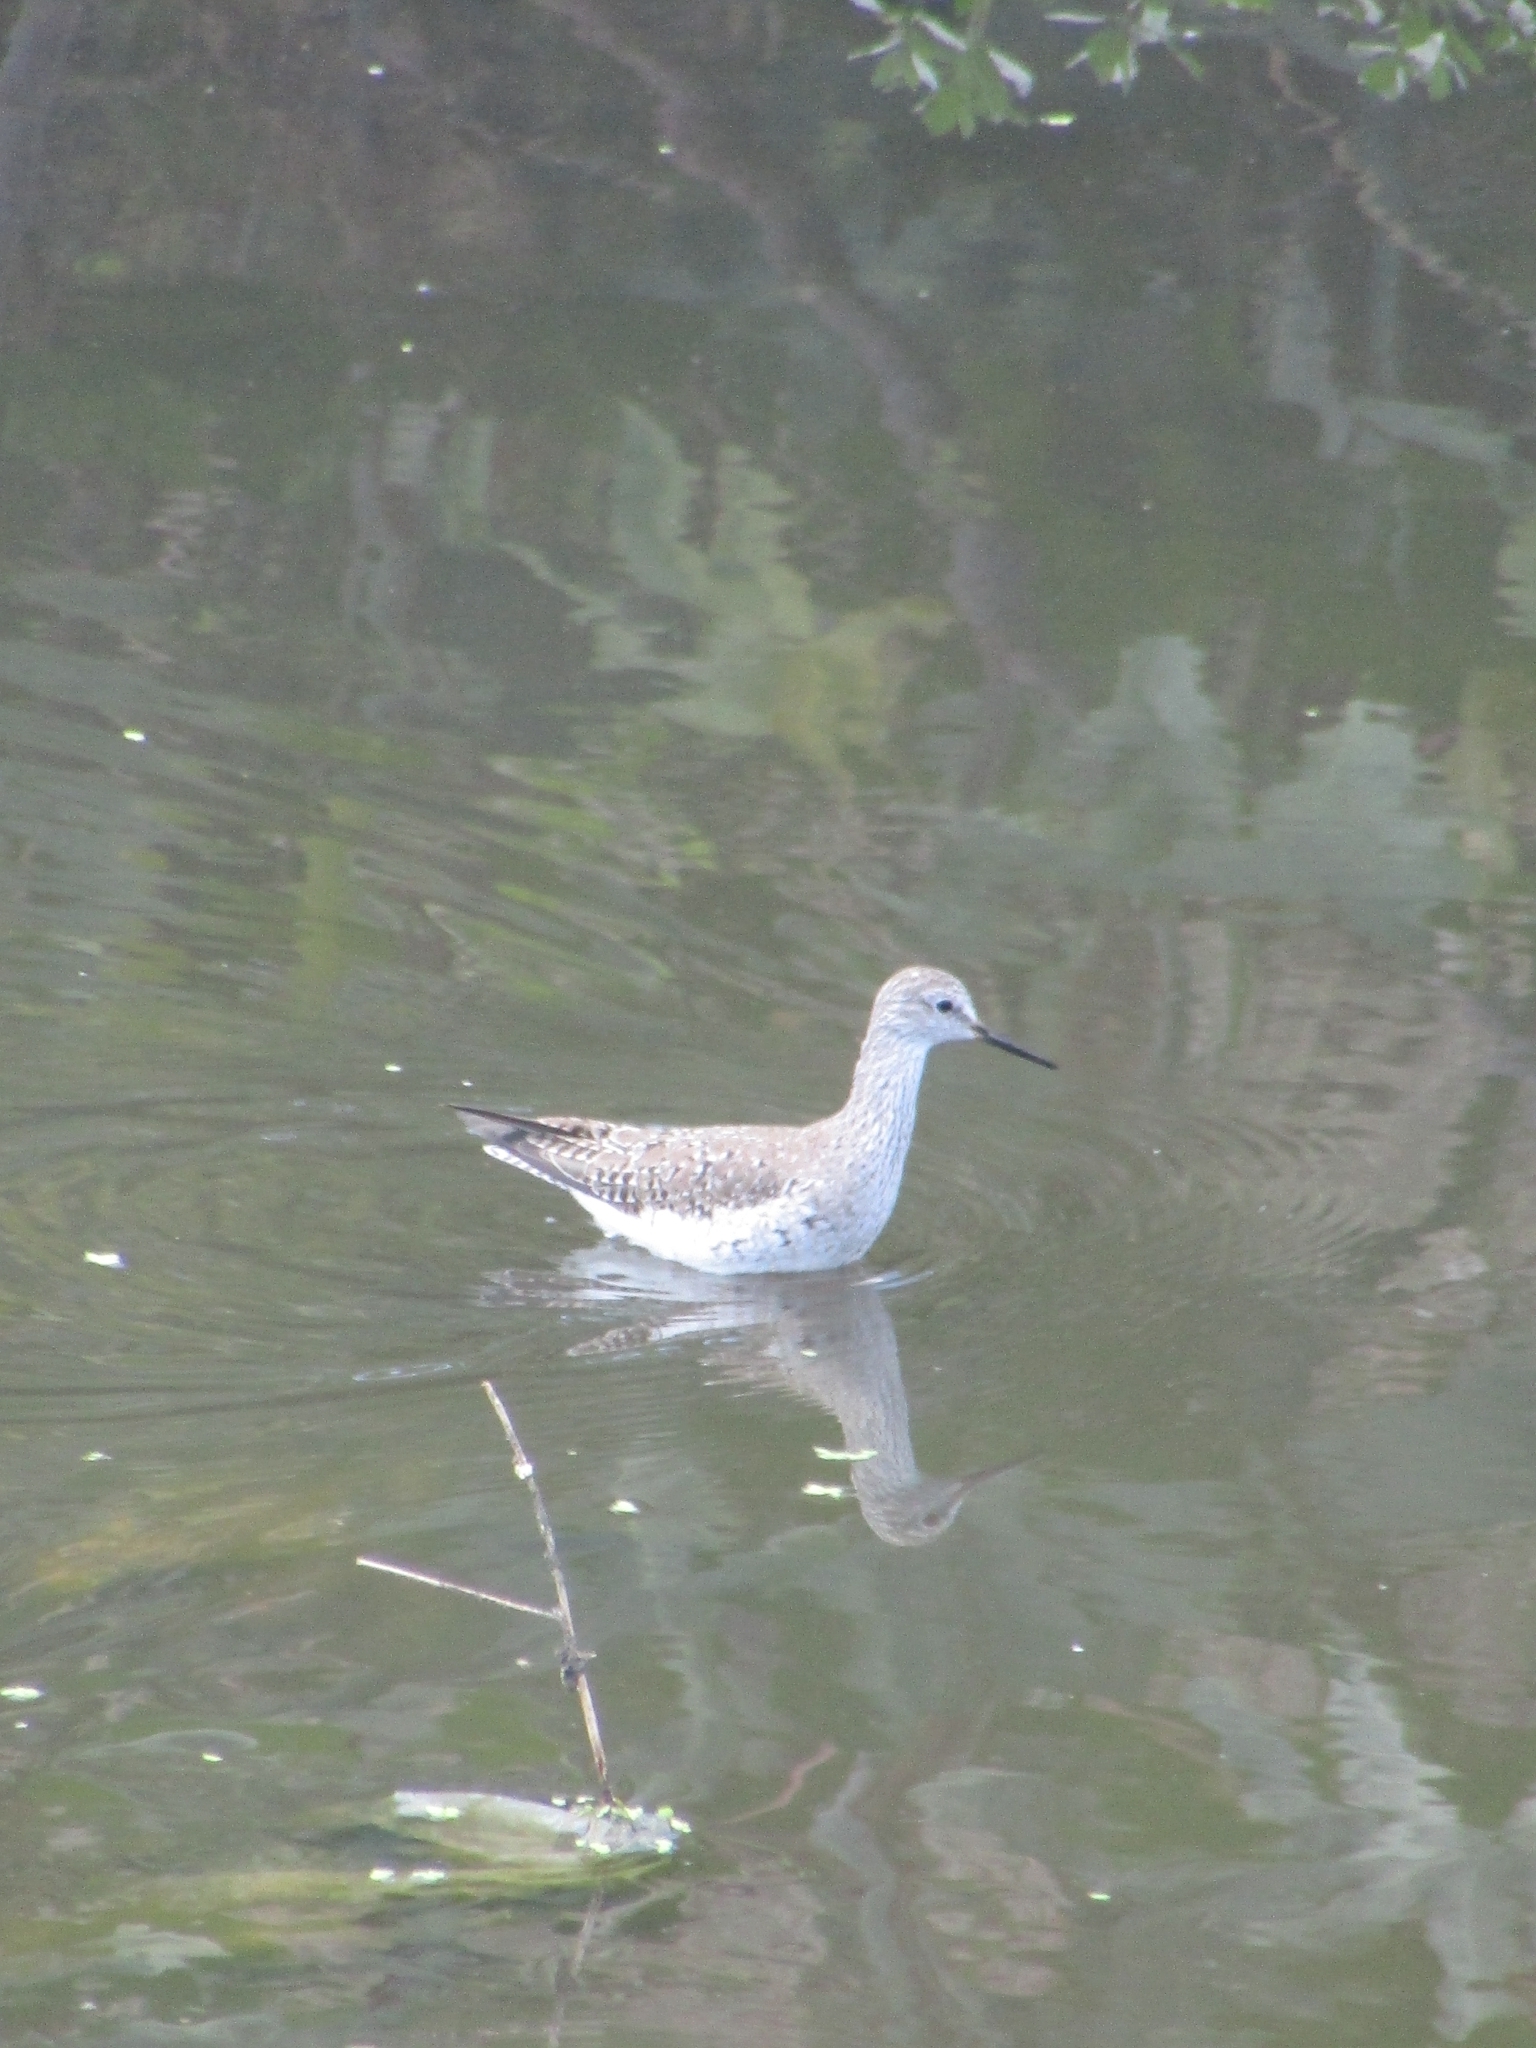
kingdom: Animalia
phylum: Chordata
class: Aves
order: Charadriiformes
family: Scolopacidae
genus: Tringa
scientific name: Tringa flavipes
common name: Lesser yellowlegs
